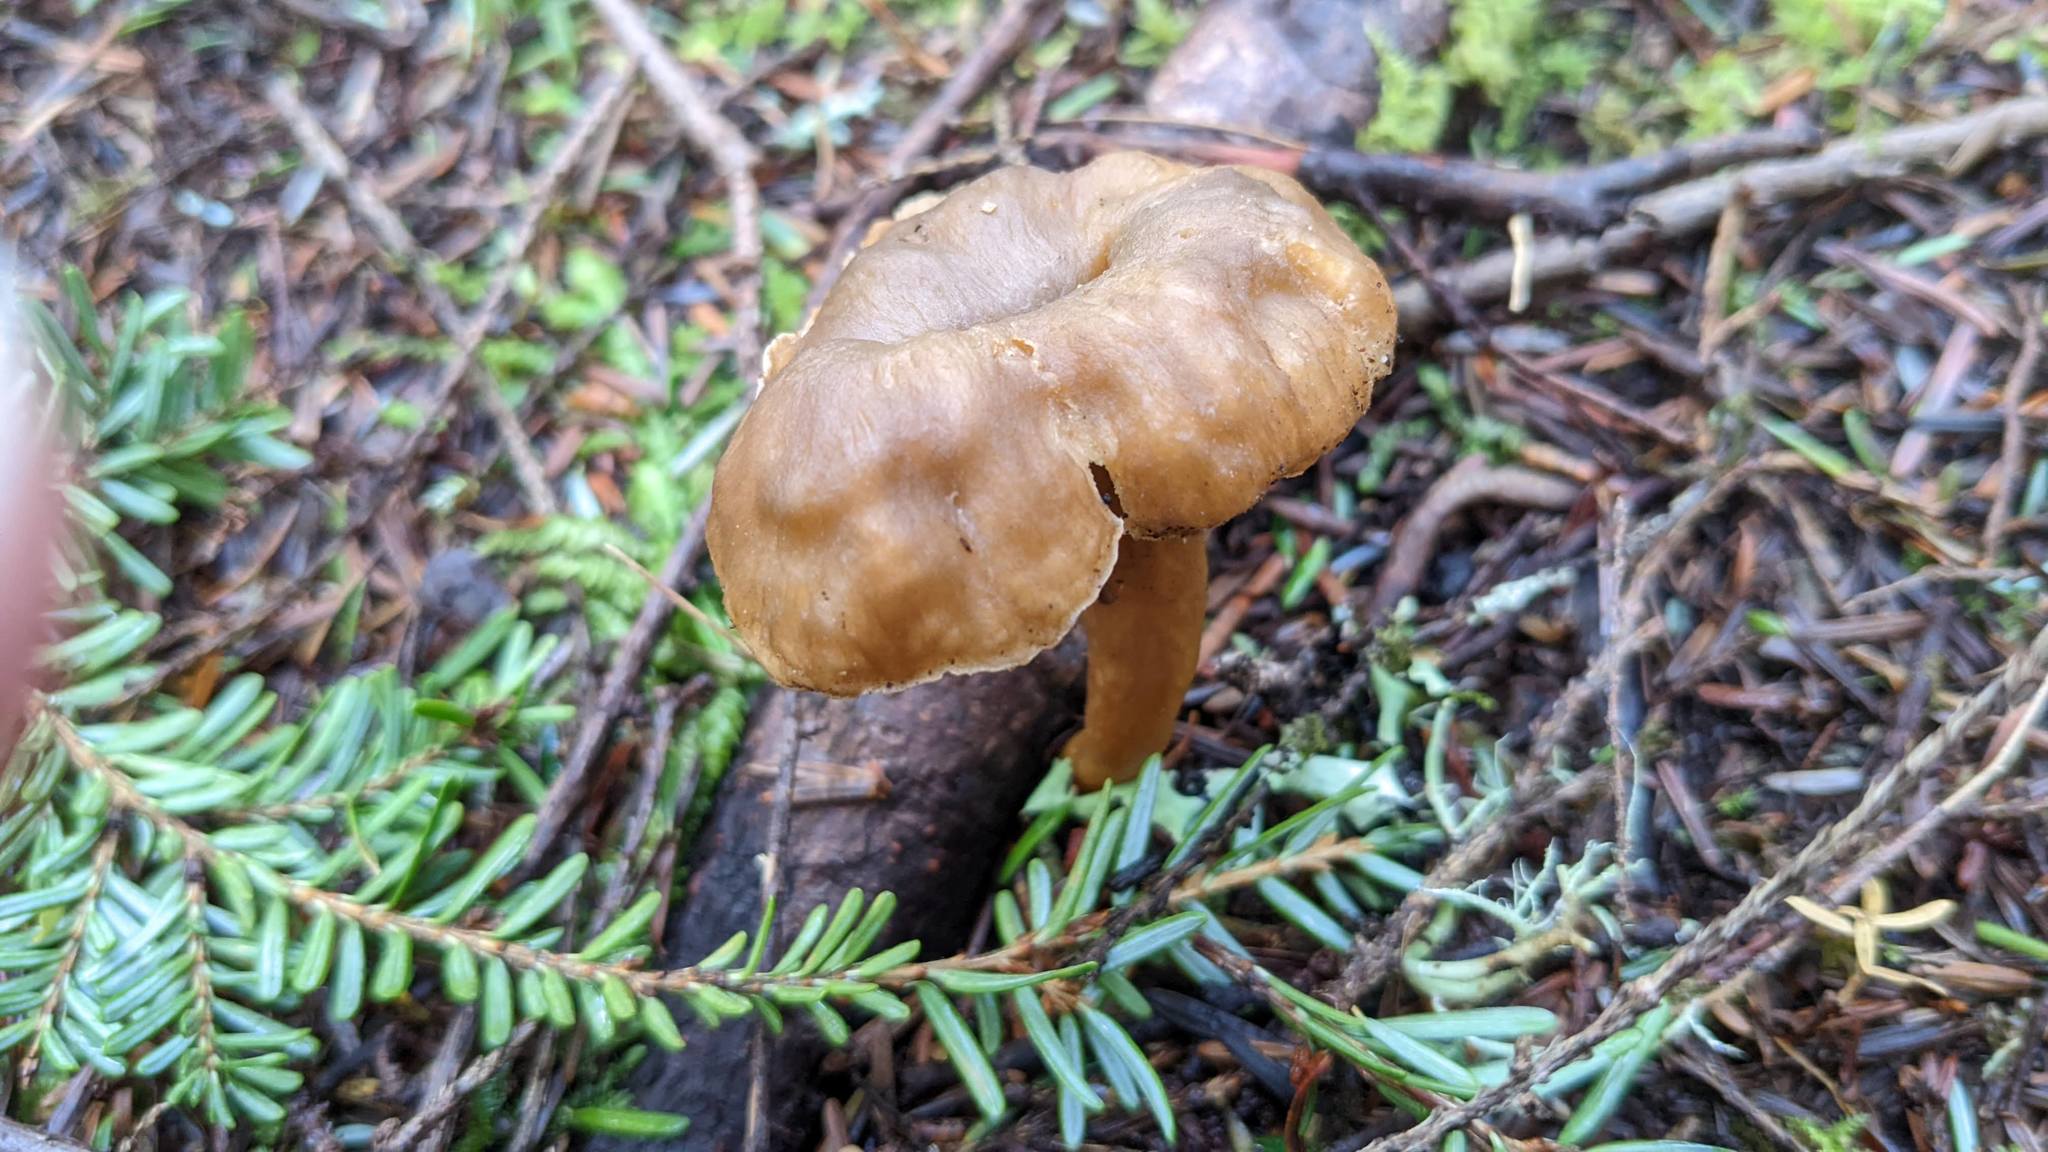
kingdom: Fungi
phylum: Basidiomycota
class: Agaricomycetes
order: Cantharellales
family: Hydnaceae
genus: Craterellus
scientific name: Craterellus tubaeformis
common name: Yellowfoot
